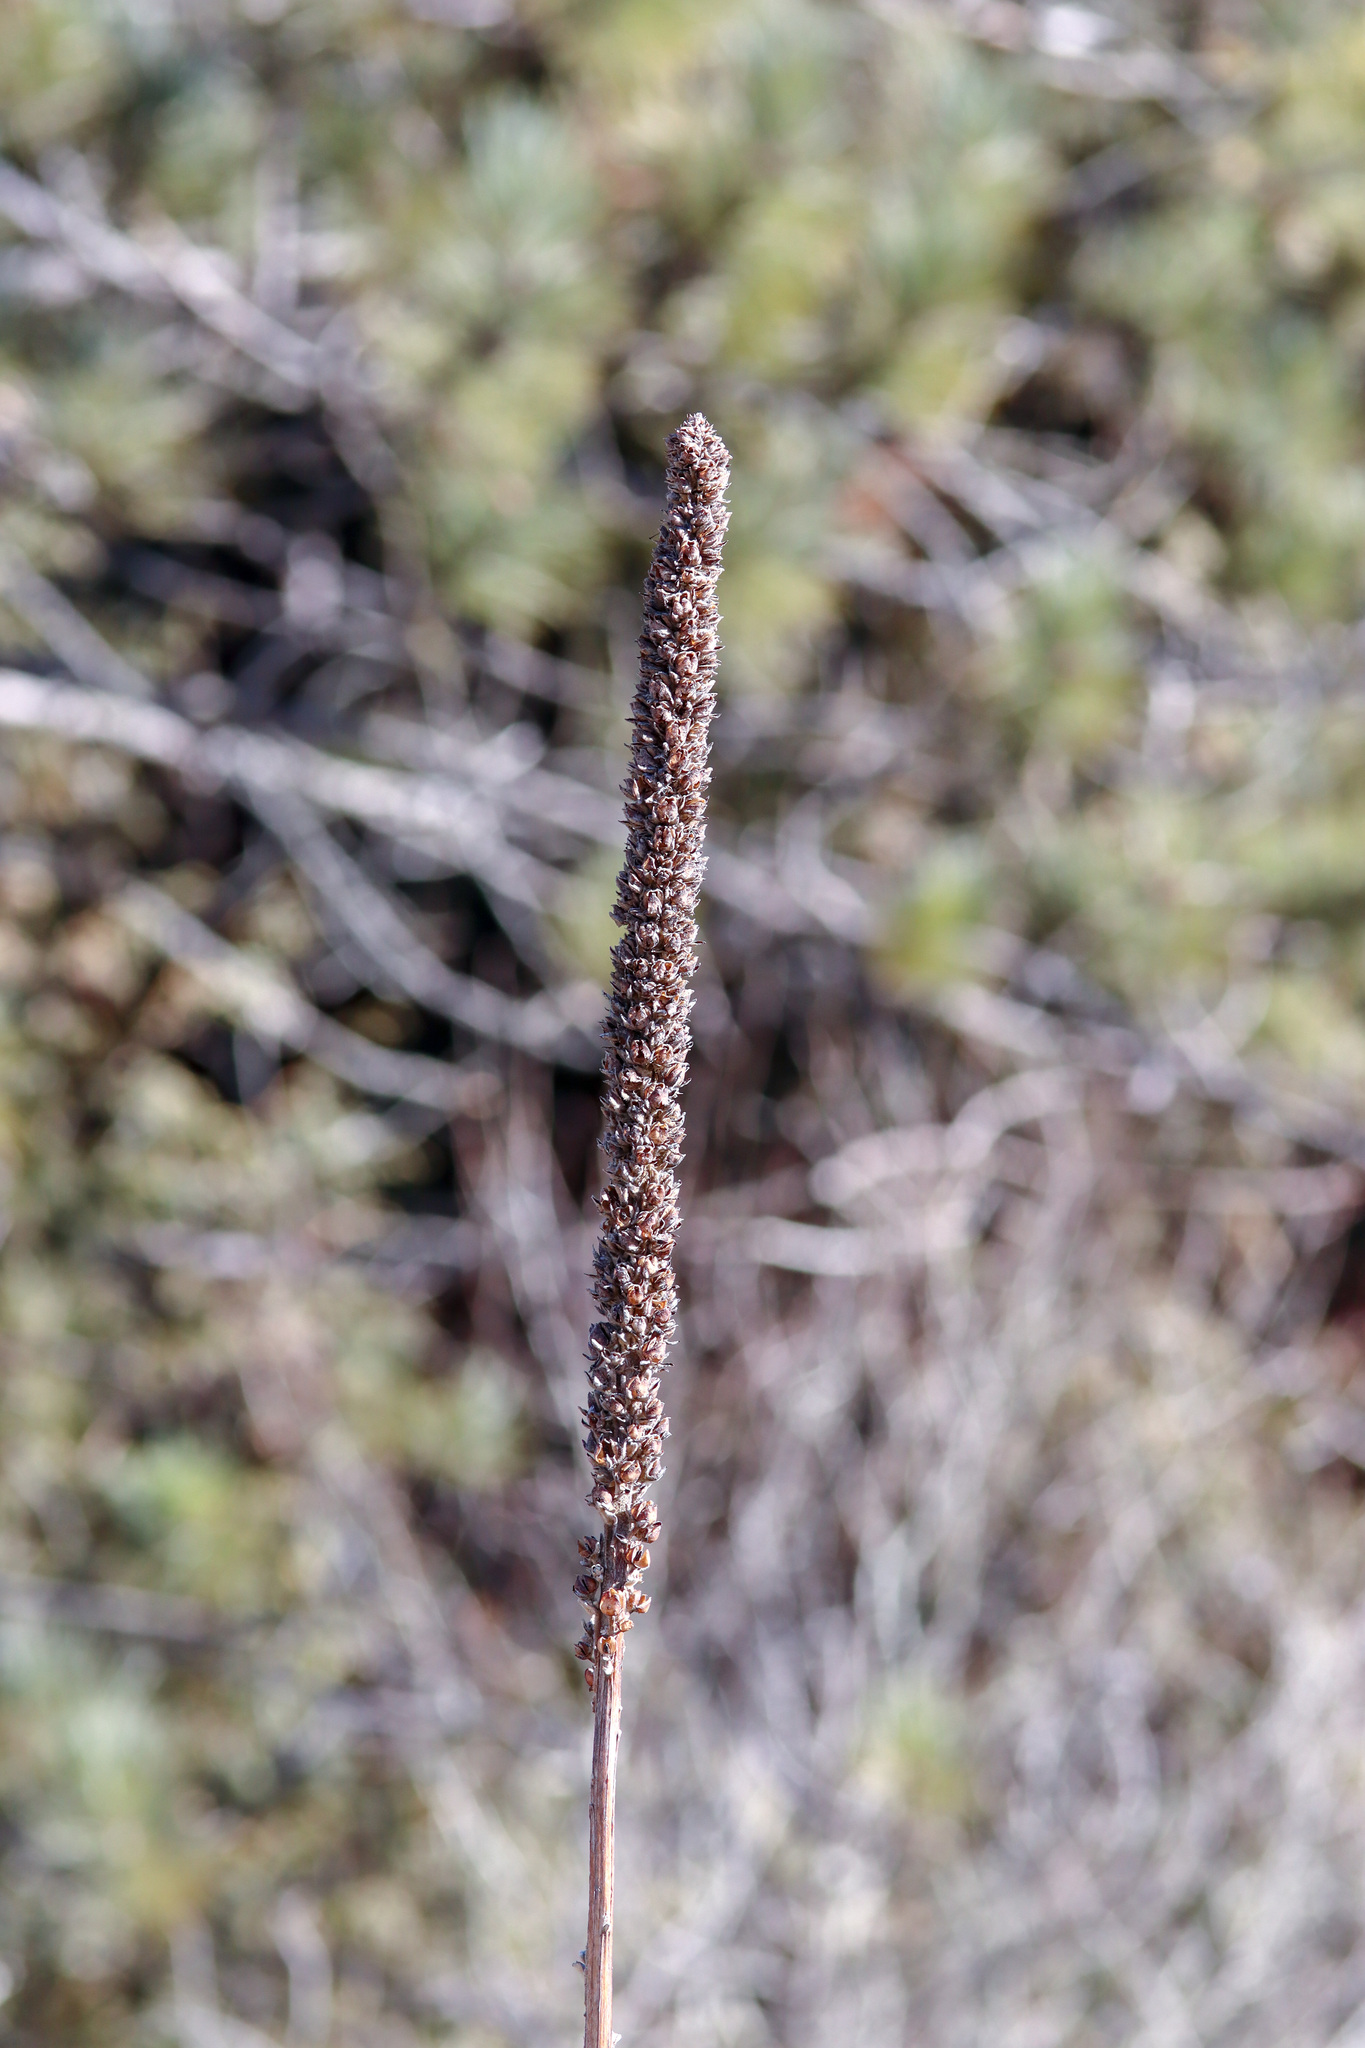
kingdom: Plantae
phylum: Tracheophyta
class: Magnoliopsida
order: Lamiales
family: Scrophulariaceae
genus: Verbascum
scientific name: Verbascum thapsus
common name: Common mullein
